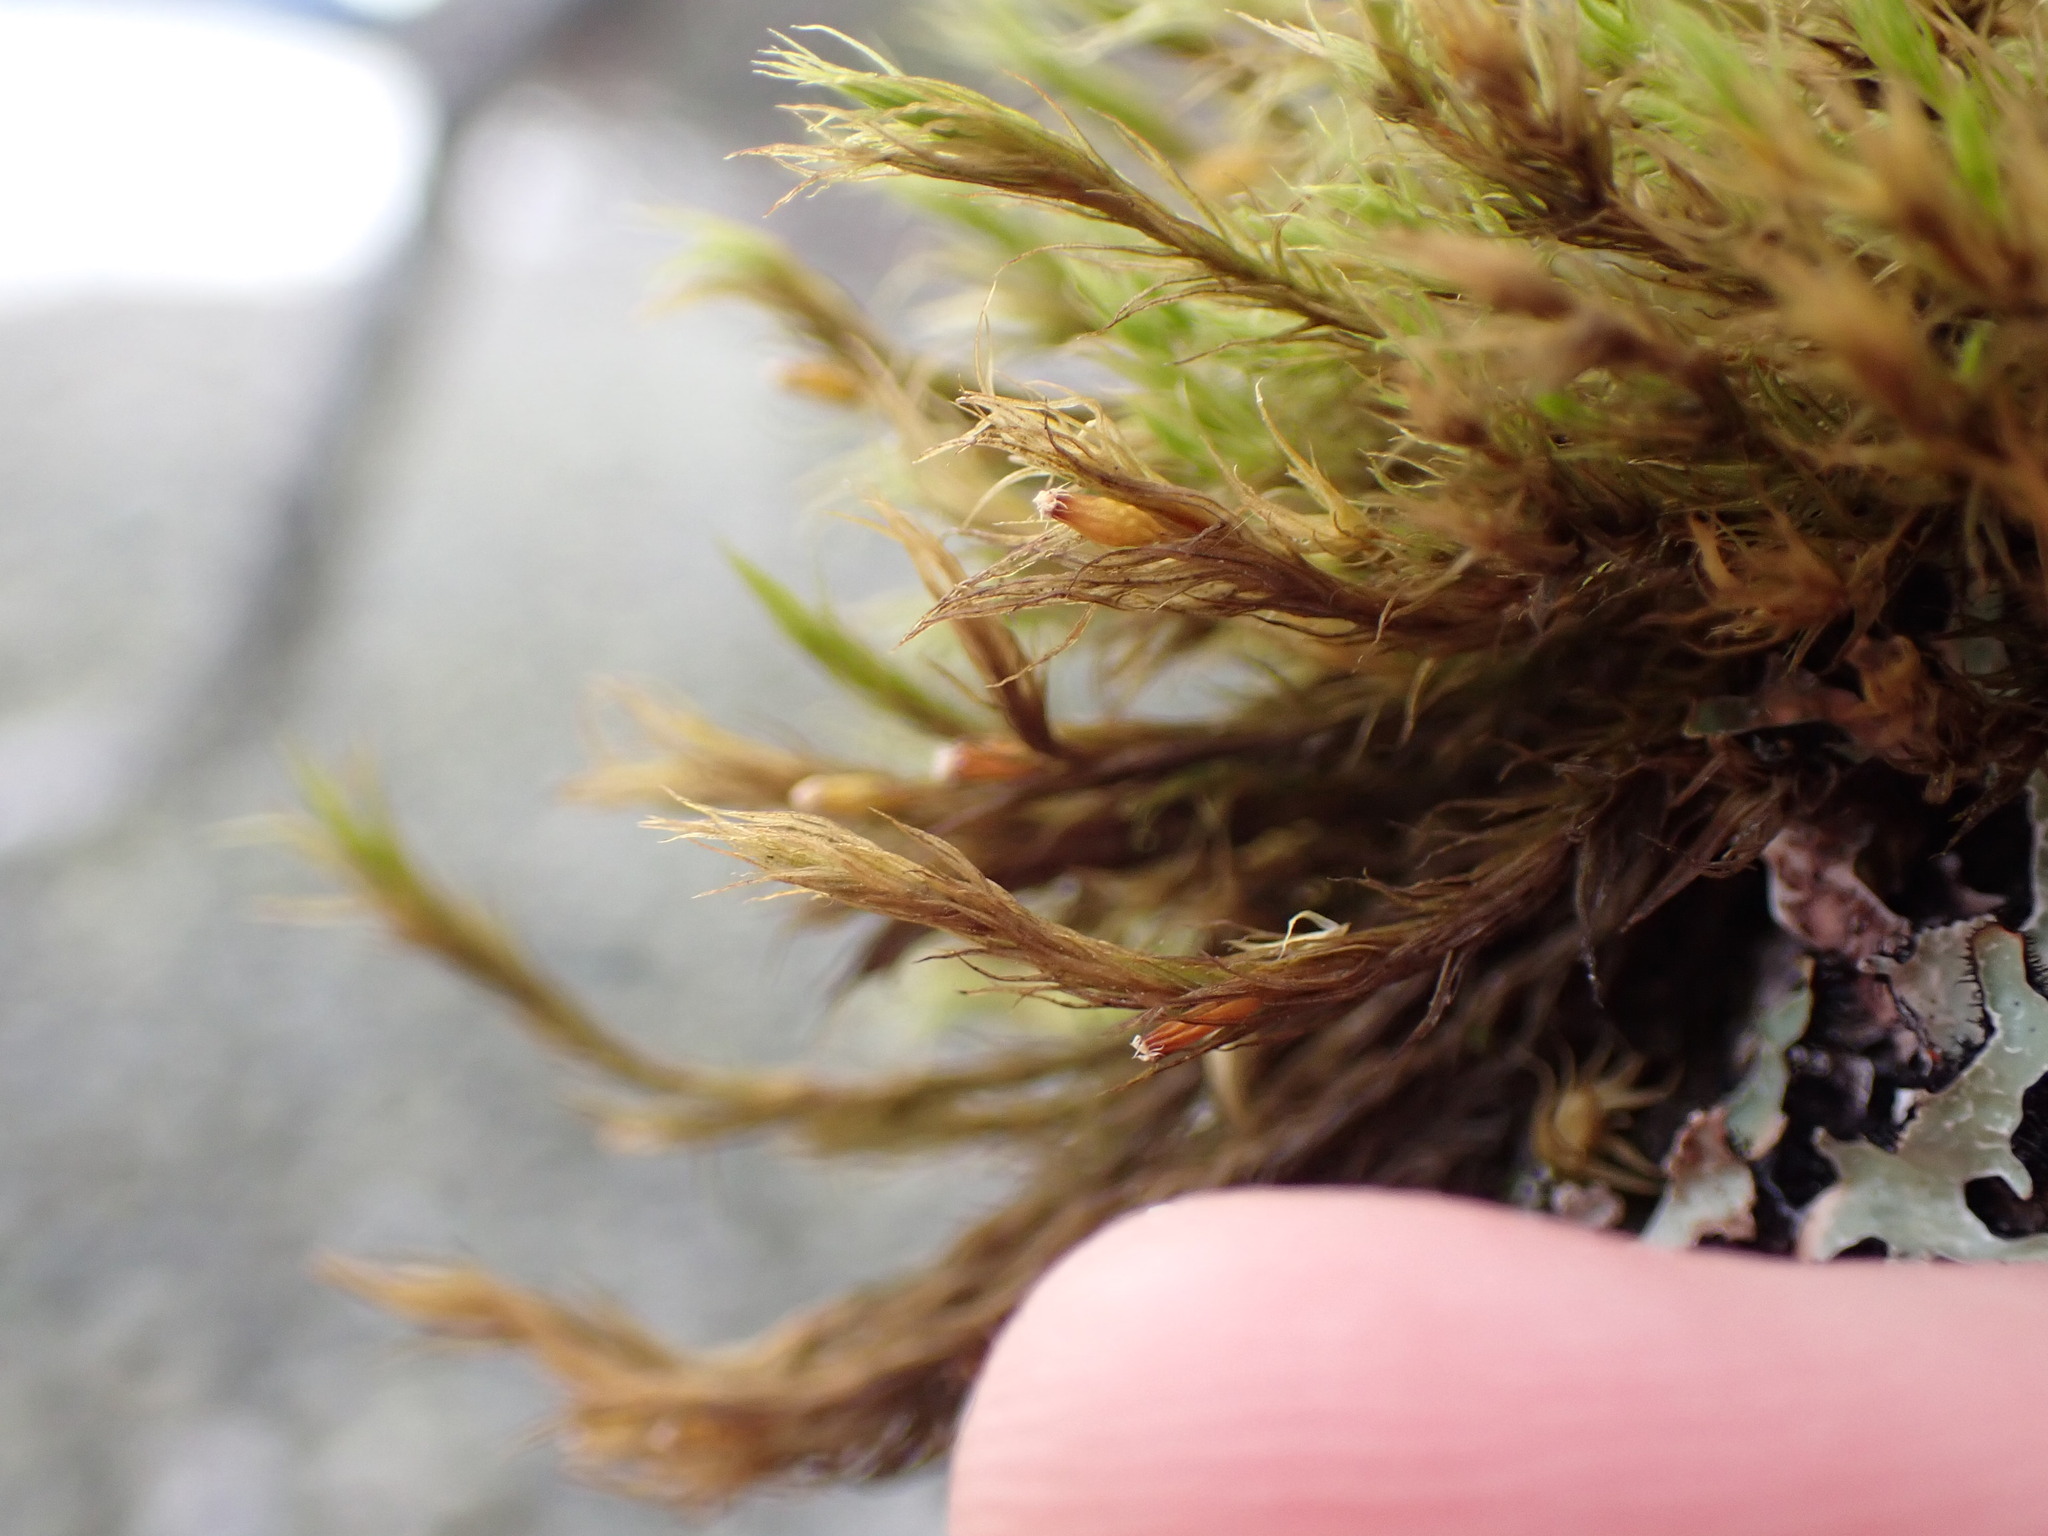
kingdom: Plantae
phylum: Bryophyta
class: Bryopsida
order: Orthotrichales
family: Orthotrichaceae
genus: Pulvigera
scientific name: Pulvigera papillosa
